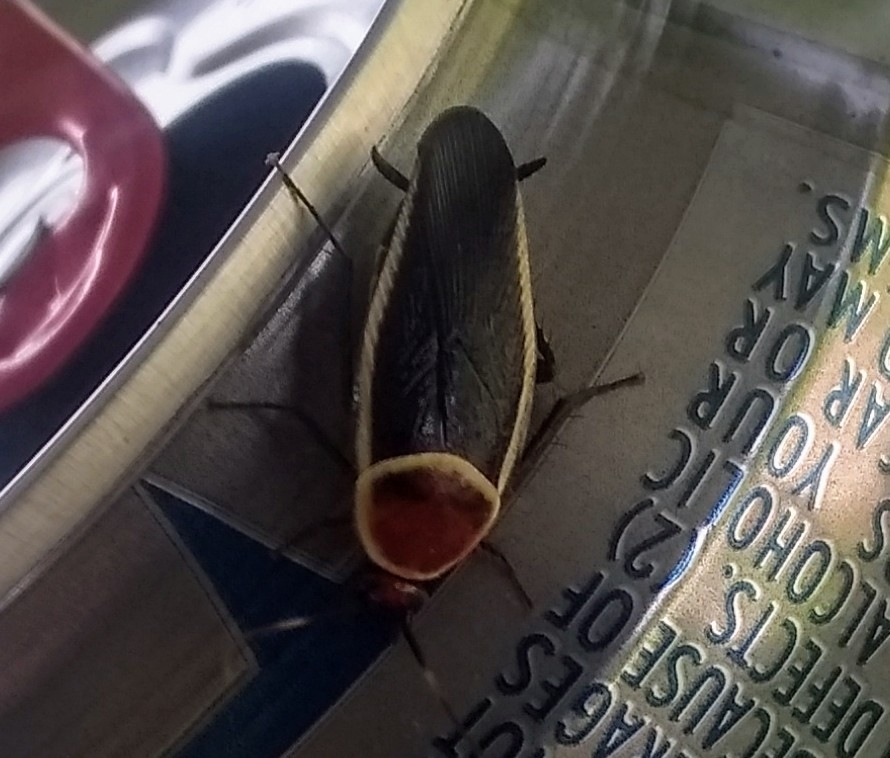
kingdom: Animalia
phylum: Arthropoda
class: Insecta
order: Blattodea
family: Ectobiidae
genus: Pseudomops
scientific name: Pseudomops septentrionalis
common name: Pale-bordered field cockroach
